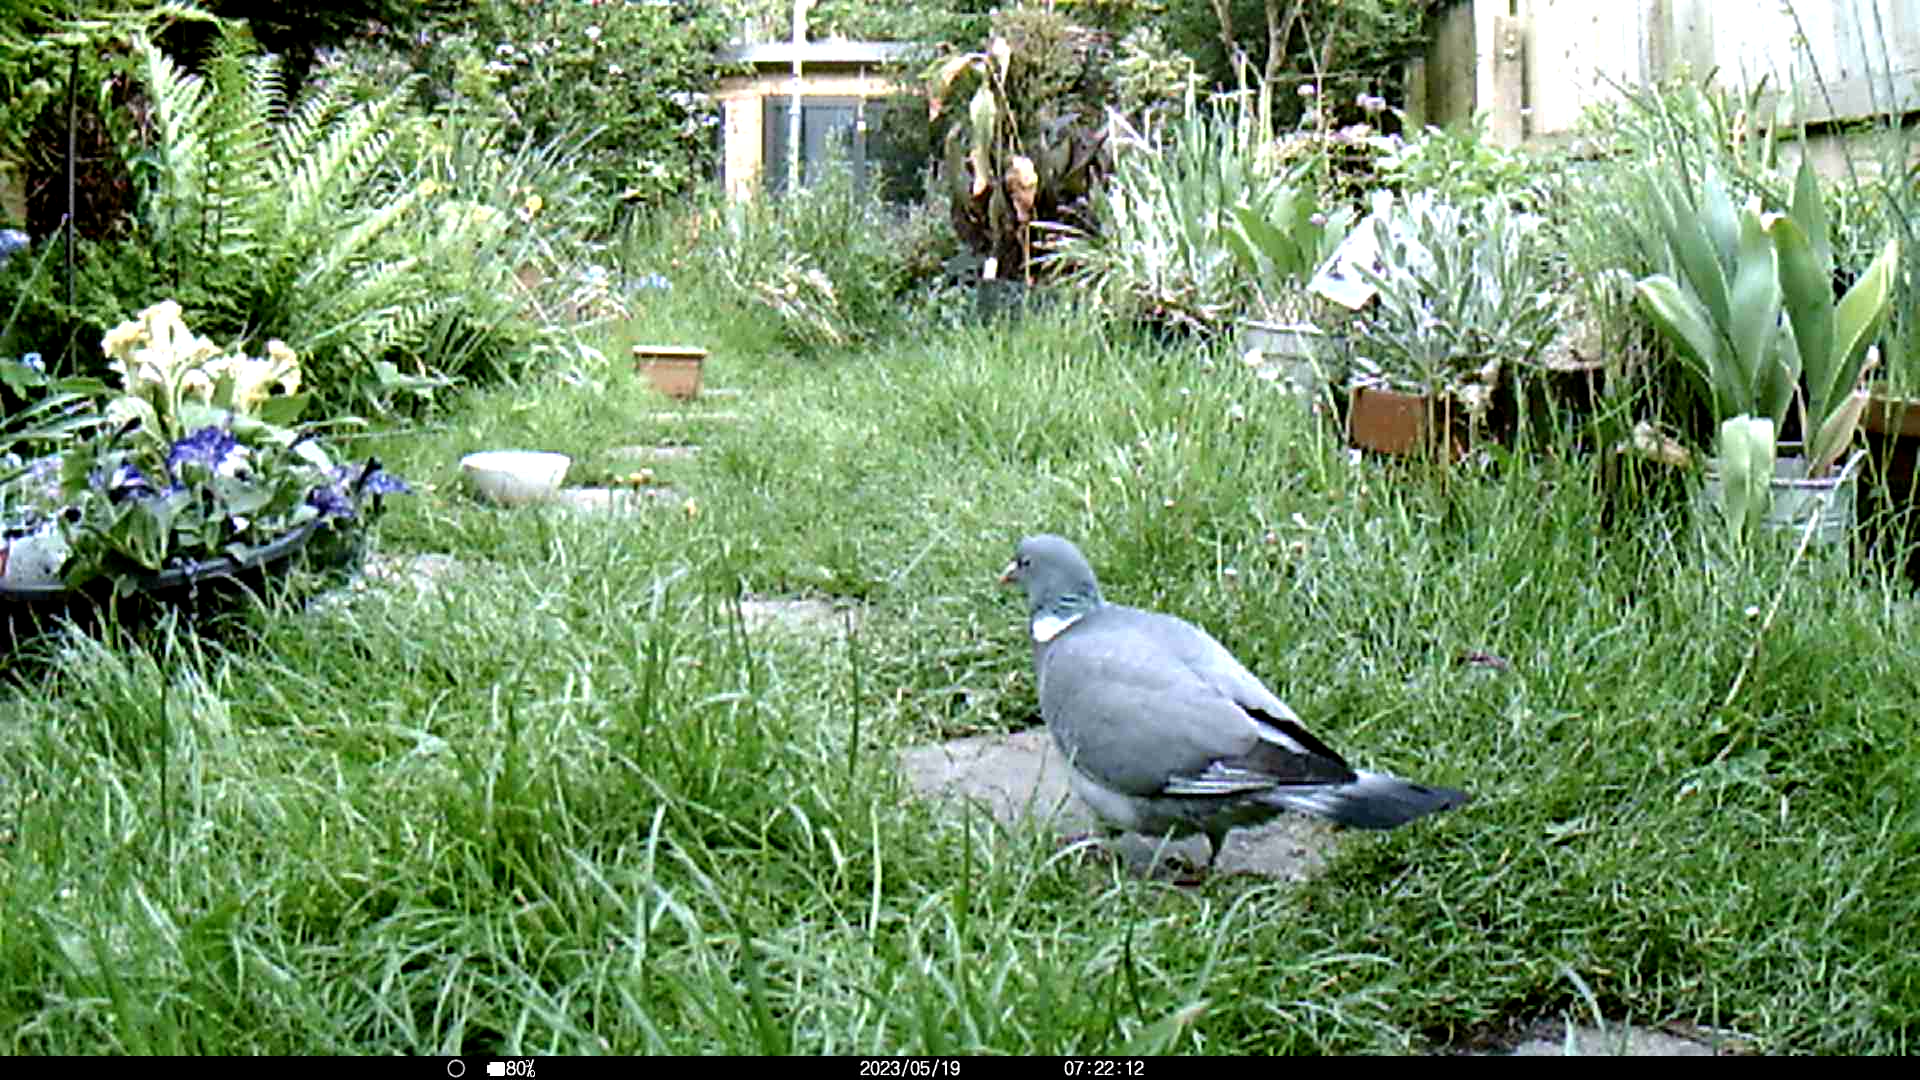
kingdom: Animalia
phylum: Chordata
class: Aves
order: Columbiformes
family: Columbidae
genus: Columba
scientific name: Columba palumbus
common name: Common wood pigeon
